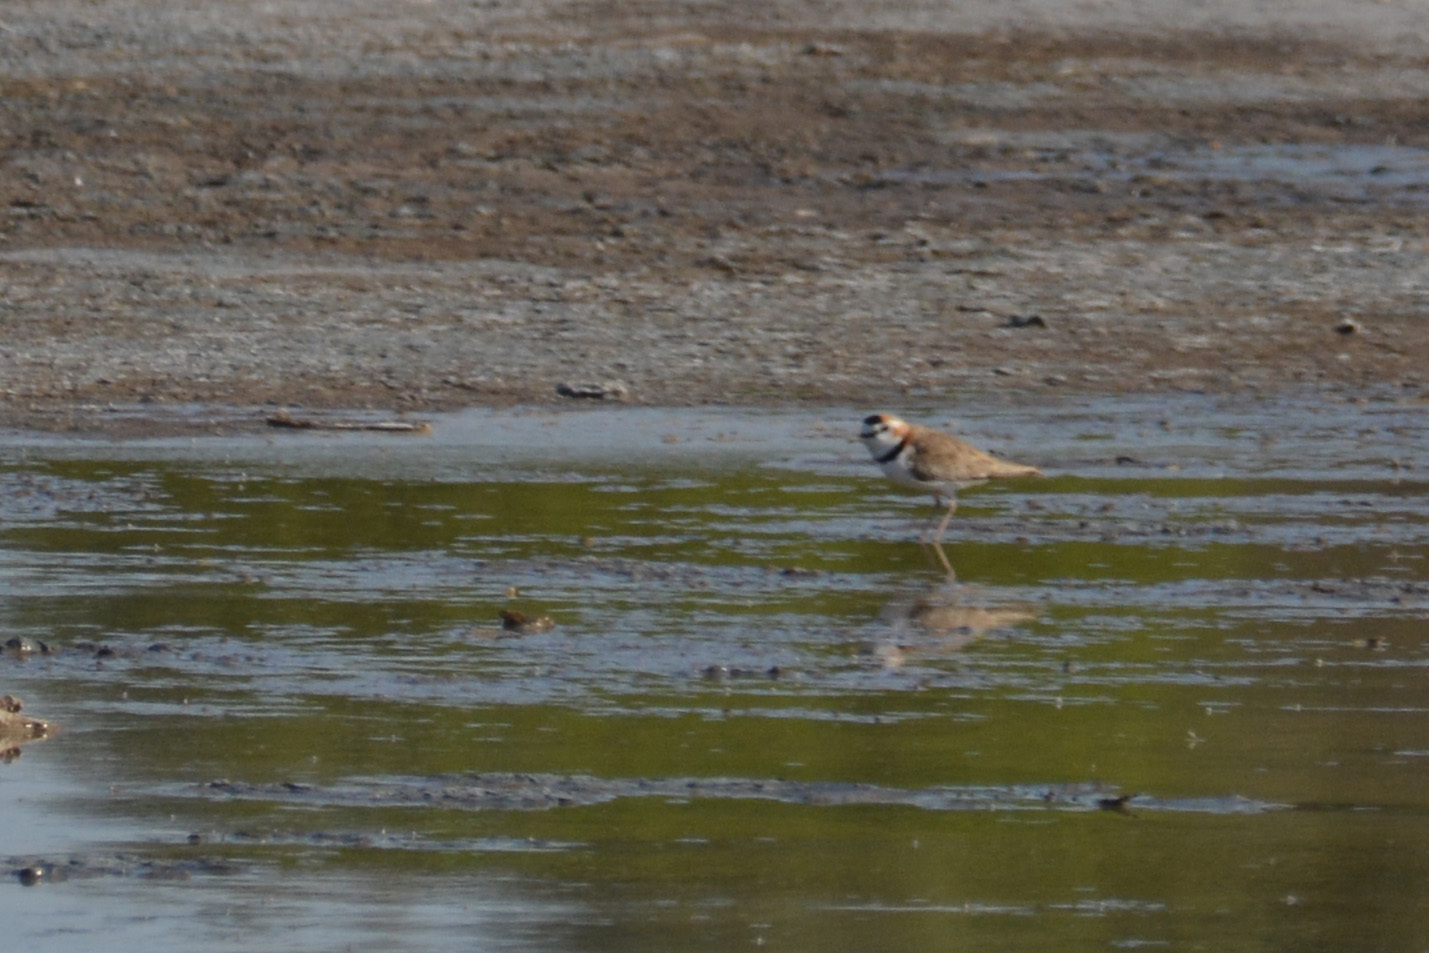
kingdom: Animalia
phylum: Chordata
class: Aves
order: Charadriiformes
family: Charadriidae
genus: Anarhynchus
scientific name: Anarhynchus
